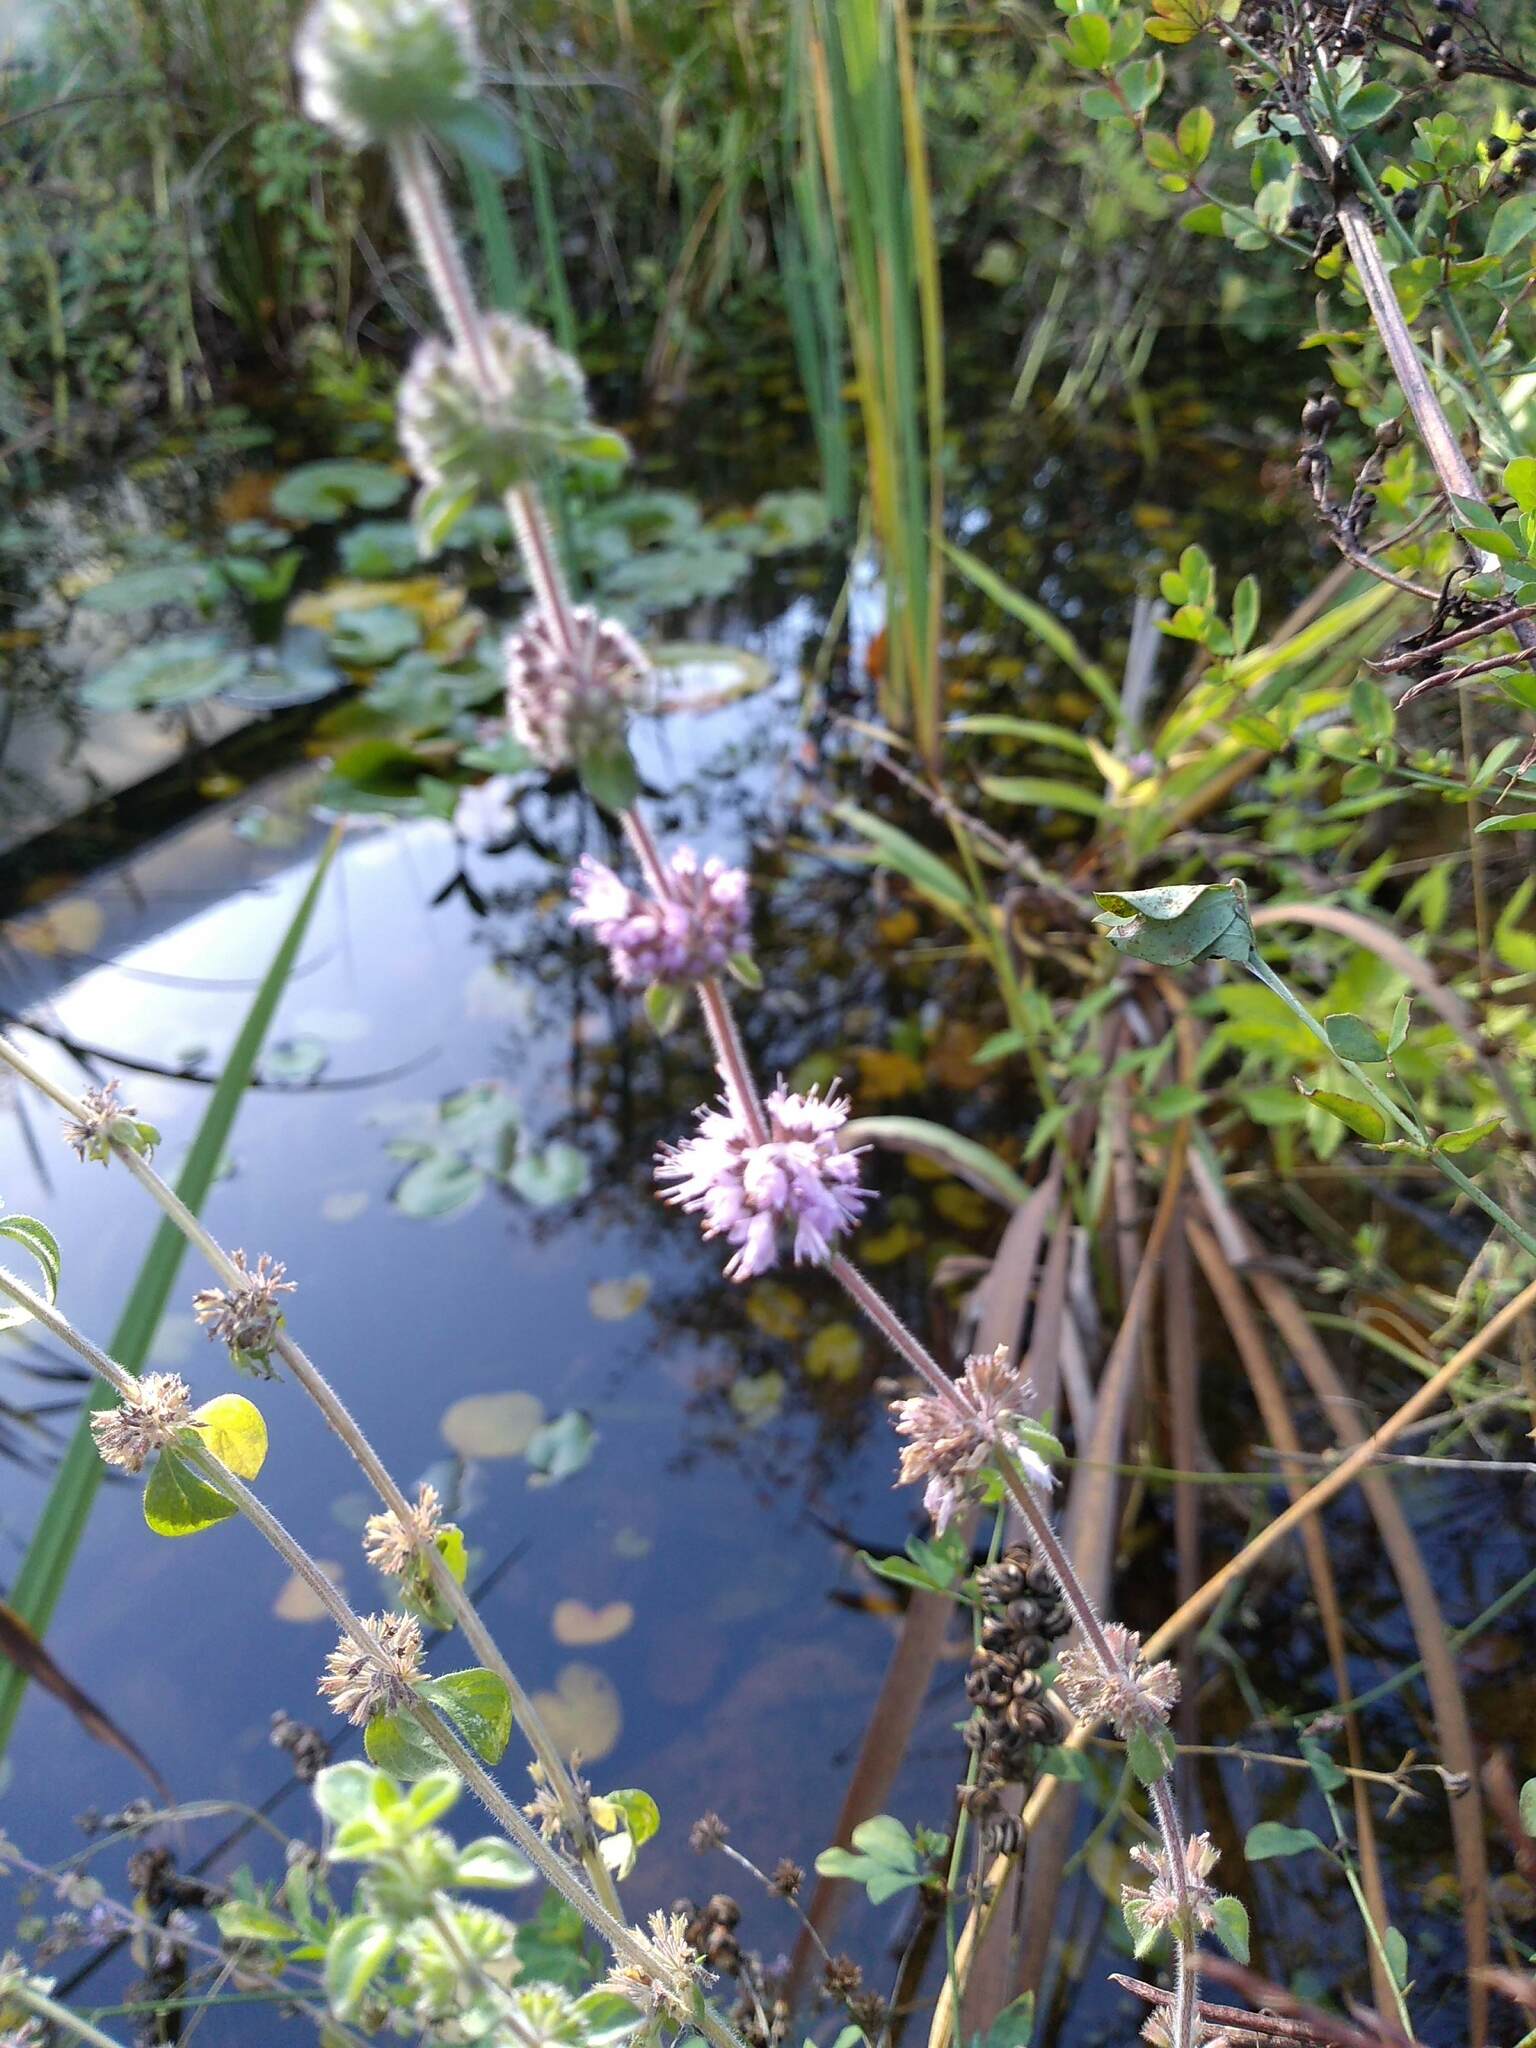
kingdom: Plantae
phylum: Tracheophyta
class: Magnoliopsida
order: Lamiales
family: Lamiaceae
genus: Mentha
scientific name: Mentha pulegium
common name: Pennyroyal
